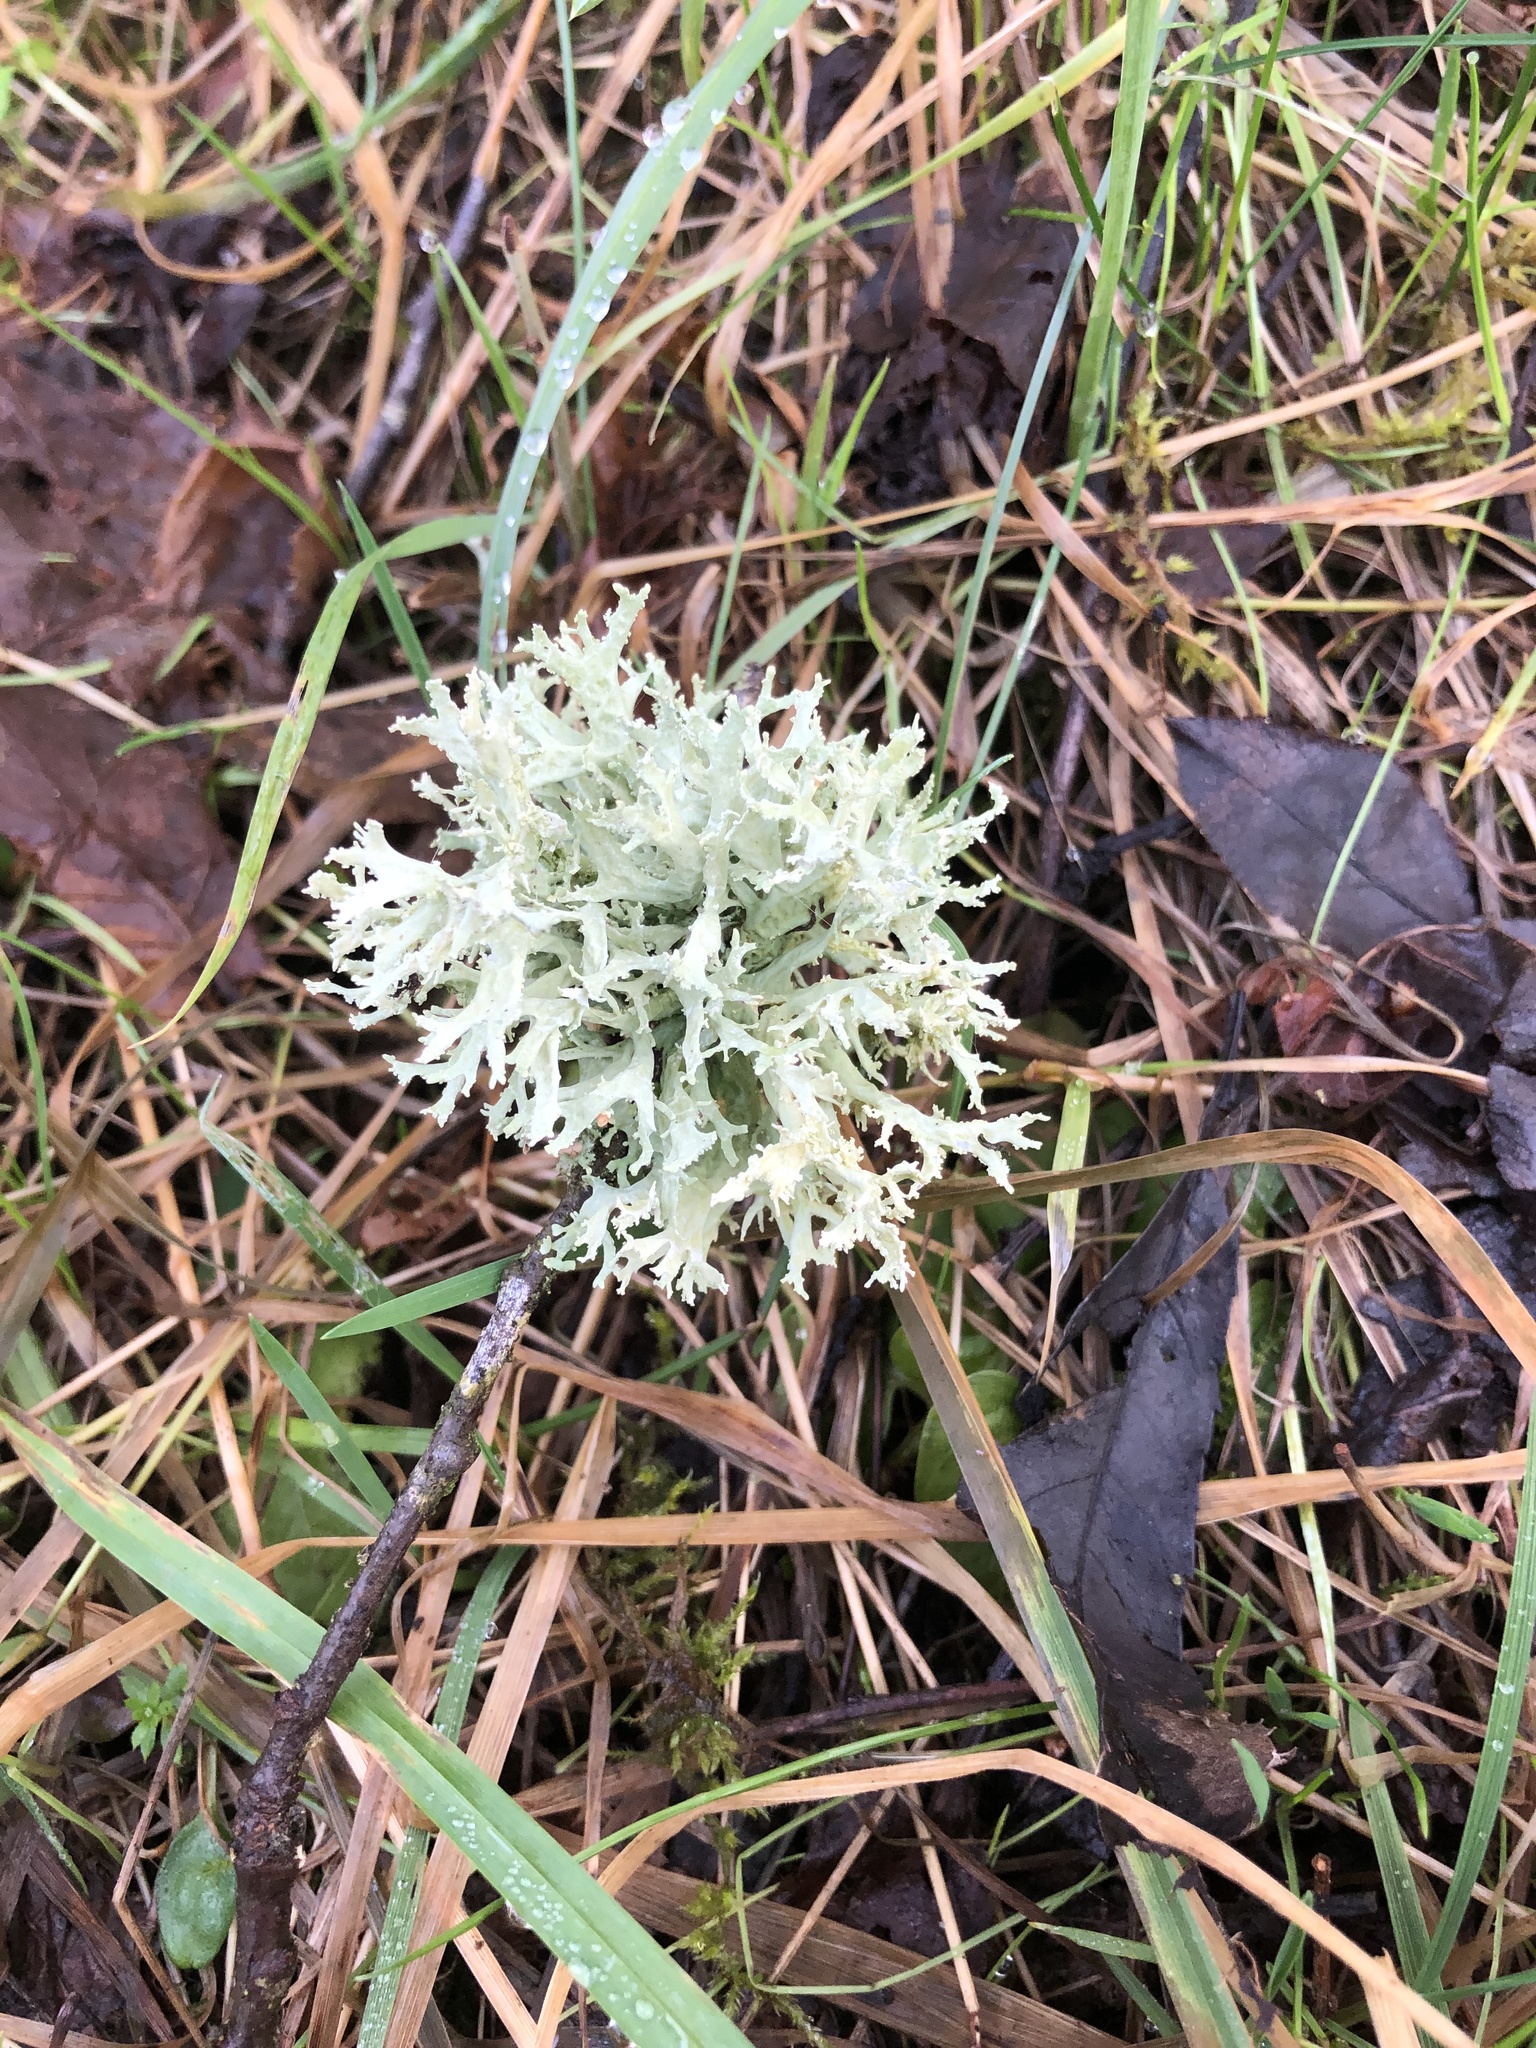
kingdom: Fungi
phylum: Ascomycota
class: Lecanoromycetes
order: Lecanorales
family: Parmeliaceae
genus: Evernia
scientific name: Evernia prunastri
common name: Oak moss
